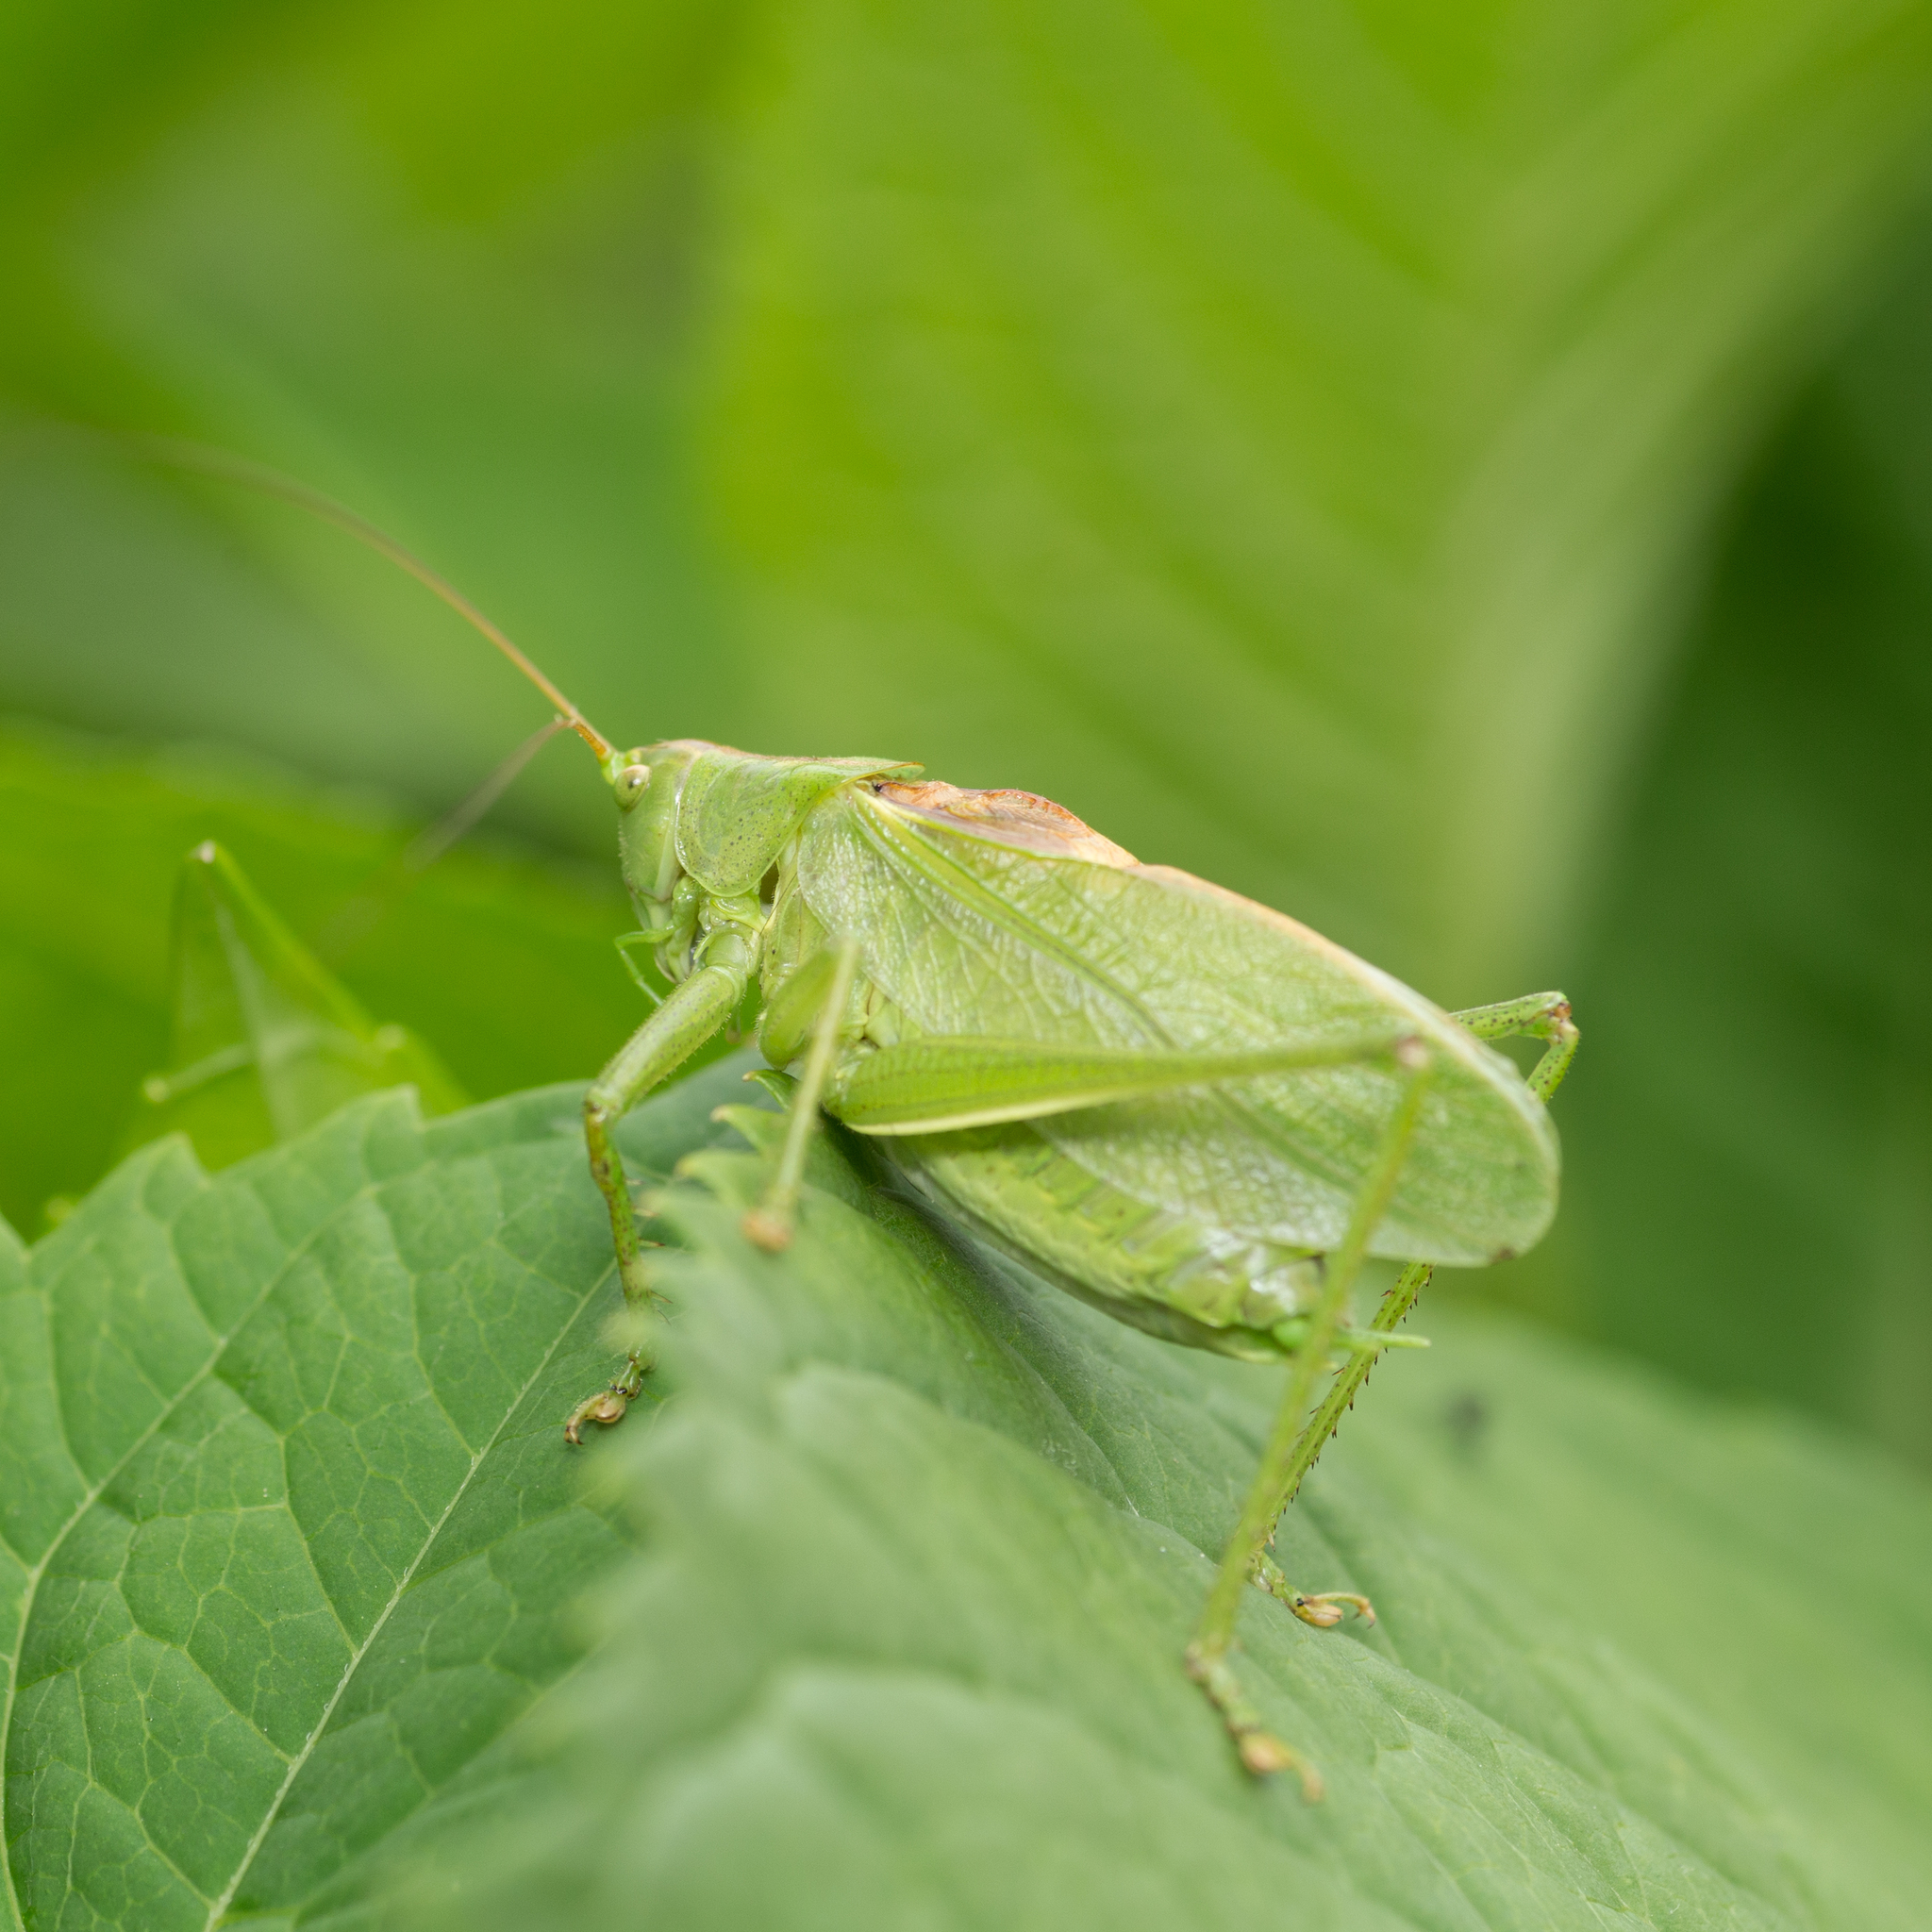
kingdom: Animalia
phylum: Arthropoda
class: Insecta
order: Orthoptera
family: Tettigoniidae
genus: Tettigonia
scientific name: Tettigonia cantans
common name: Upland green bush-cricket
